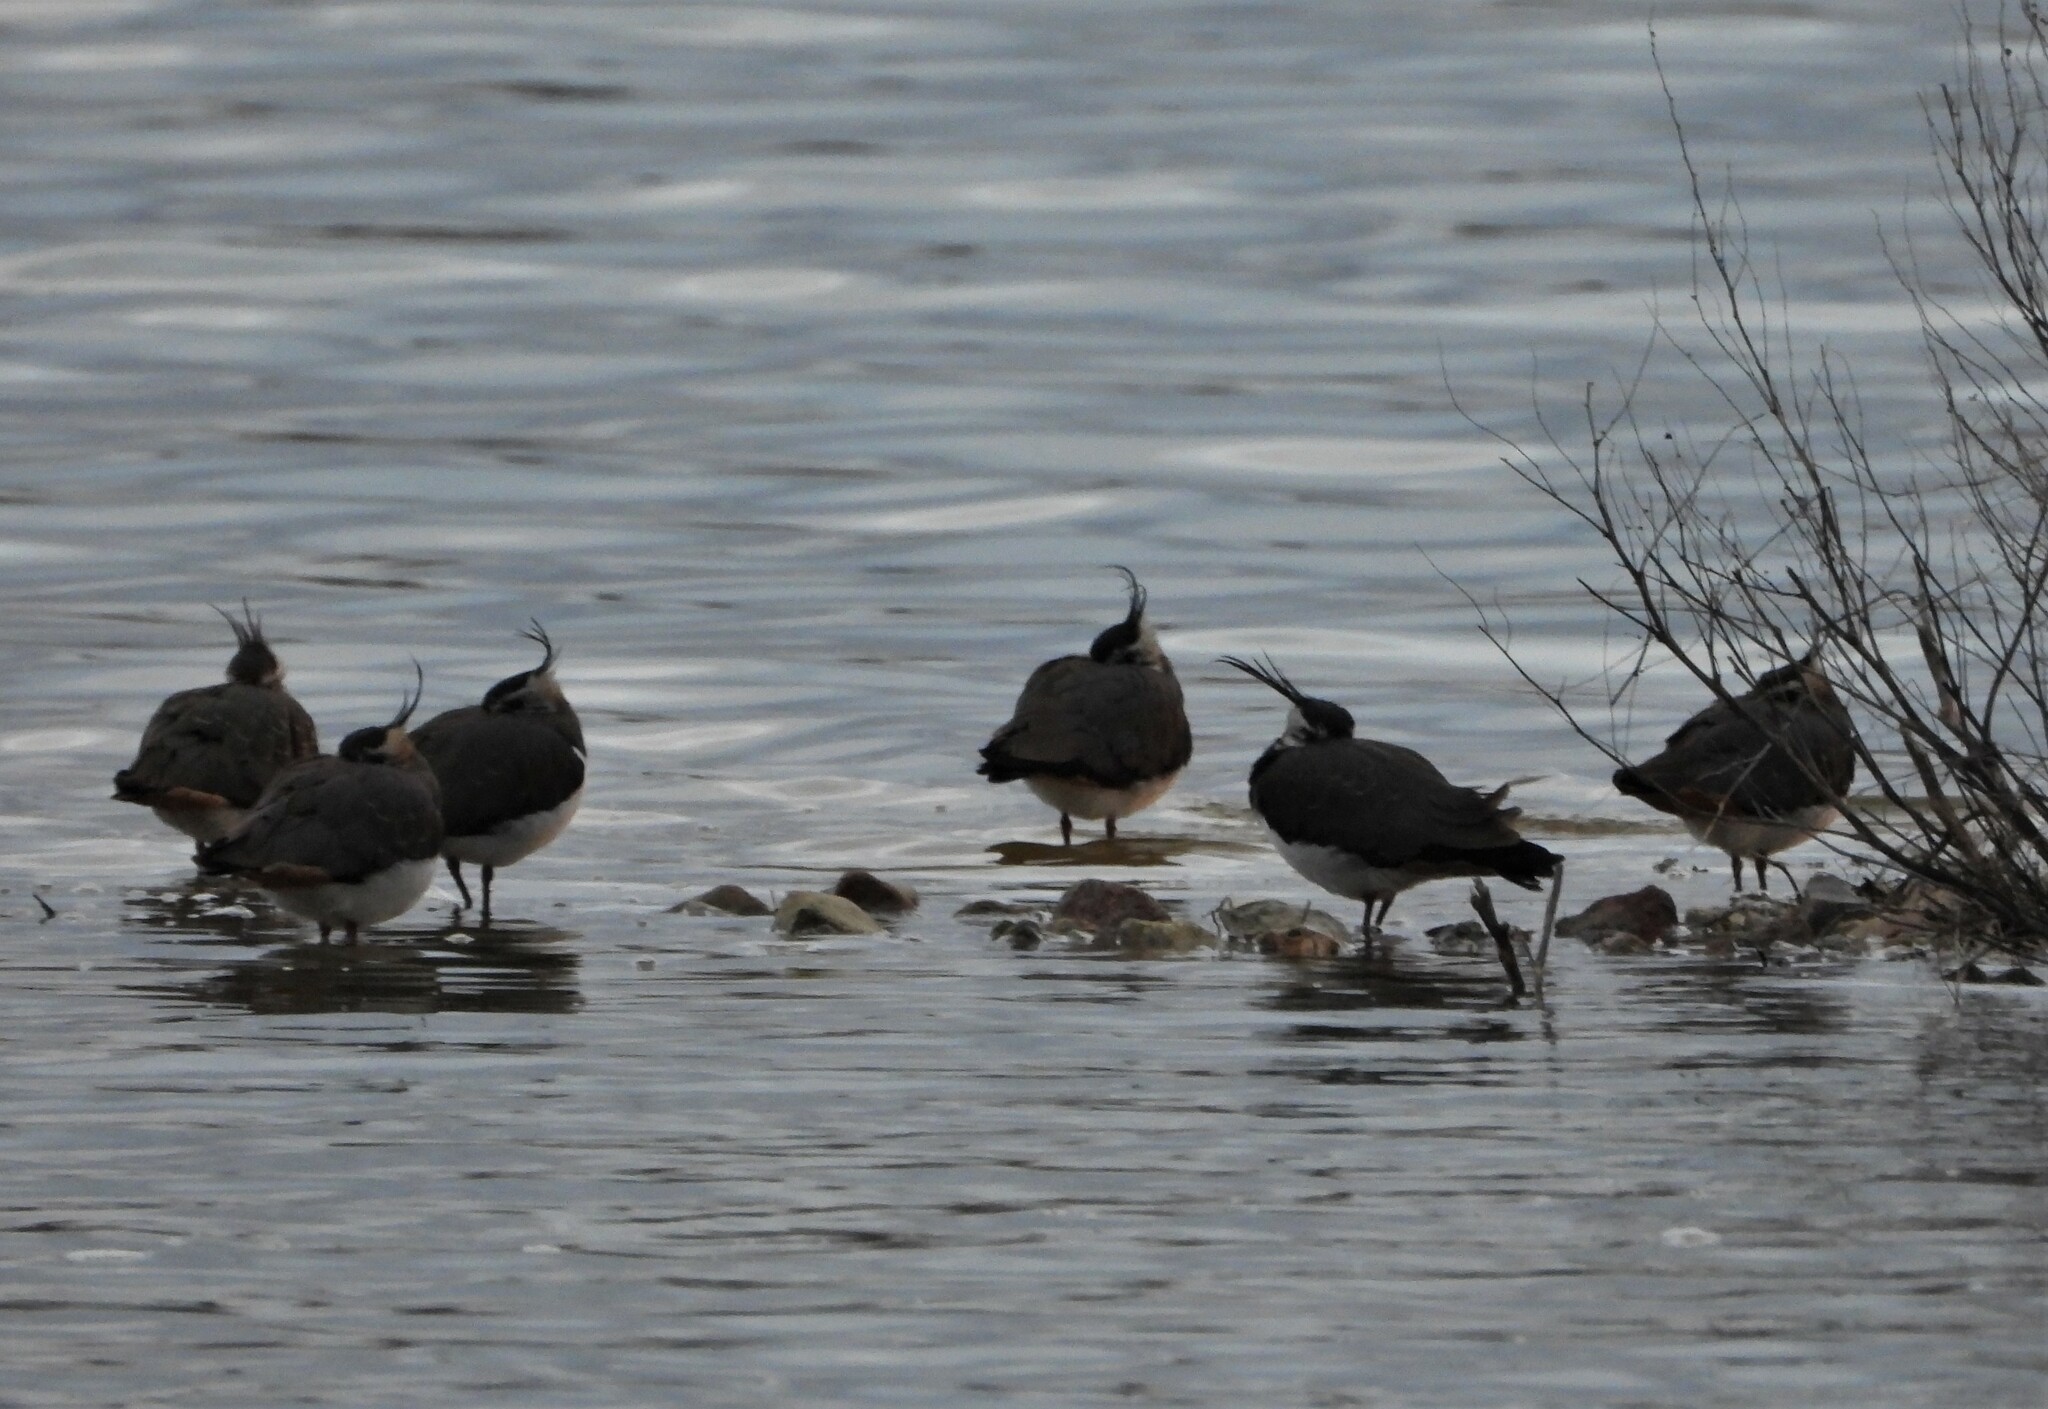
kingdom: Animalia
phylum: Chordata
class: Aves
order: Charadriiformes
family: Charadriidae
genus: Vanellus
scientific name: Vanellus vanellus
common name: Northern lapwing
